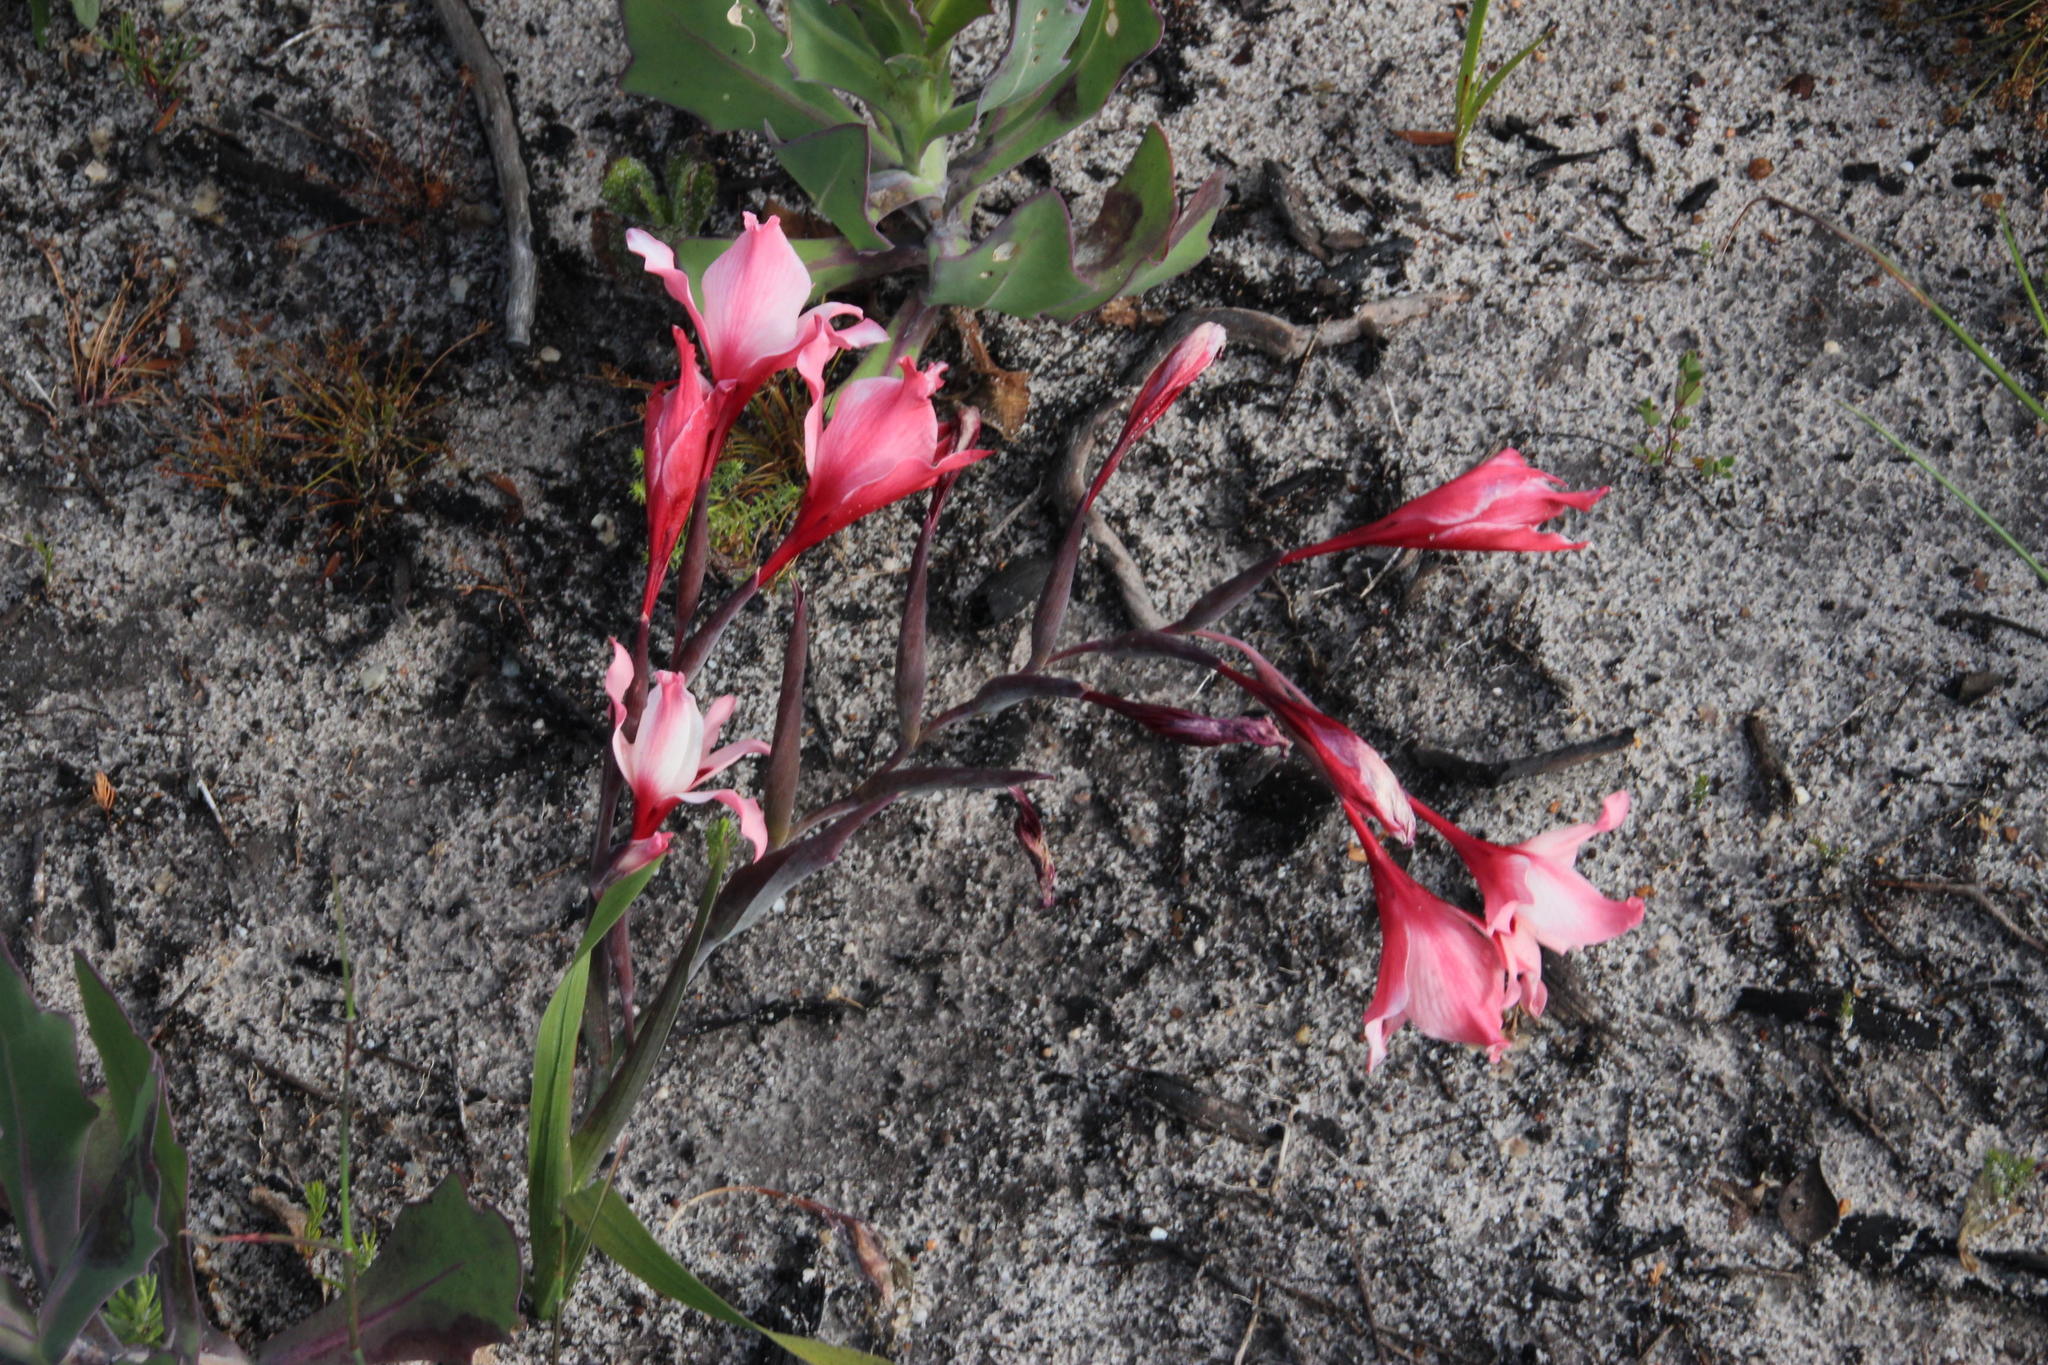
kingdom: Plantae
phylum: Tracheophyta
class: Liliopsida
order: Asparagales
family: Iridaceae
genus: Gladiolus
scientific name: Gladiolus carneus
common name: Painted-lady
